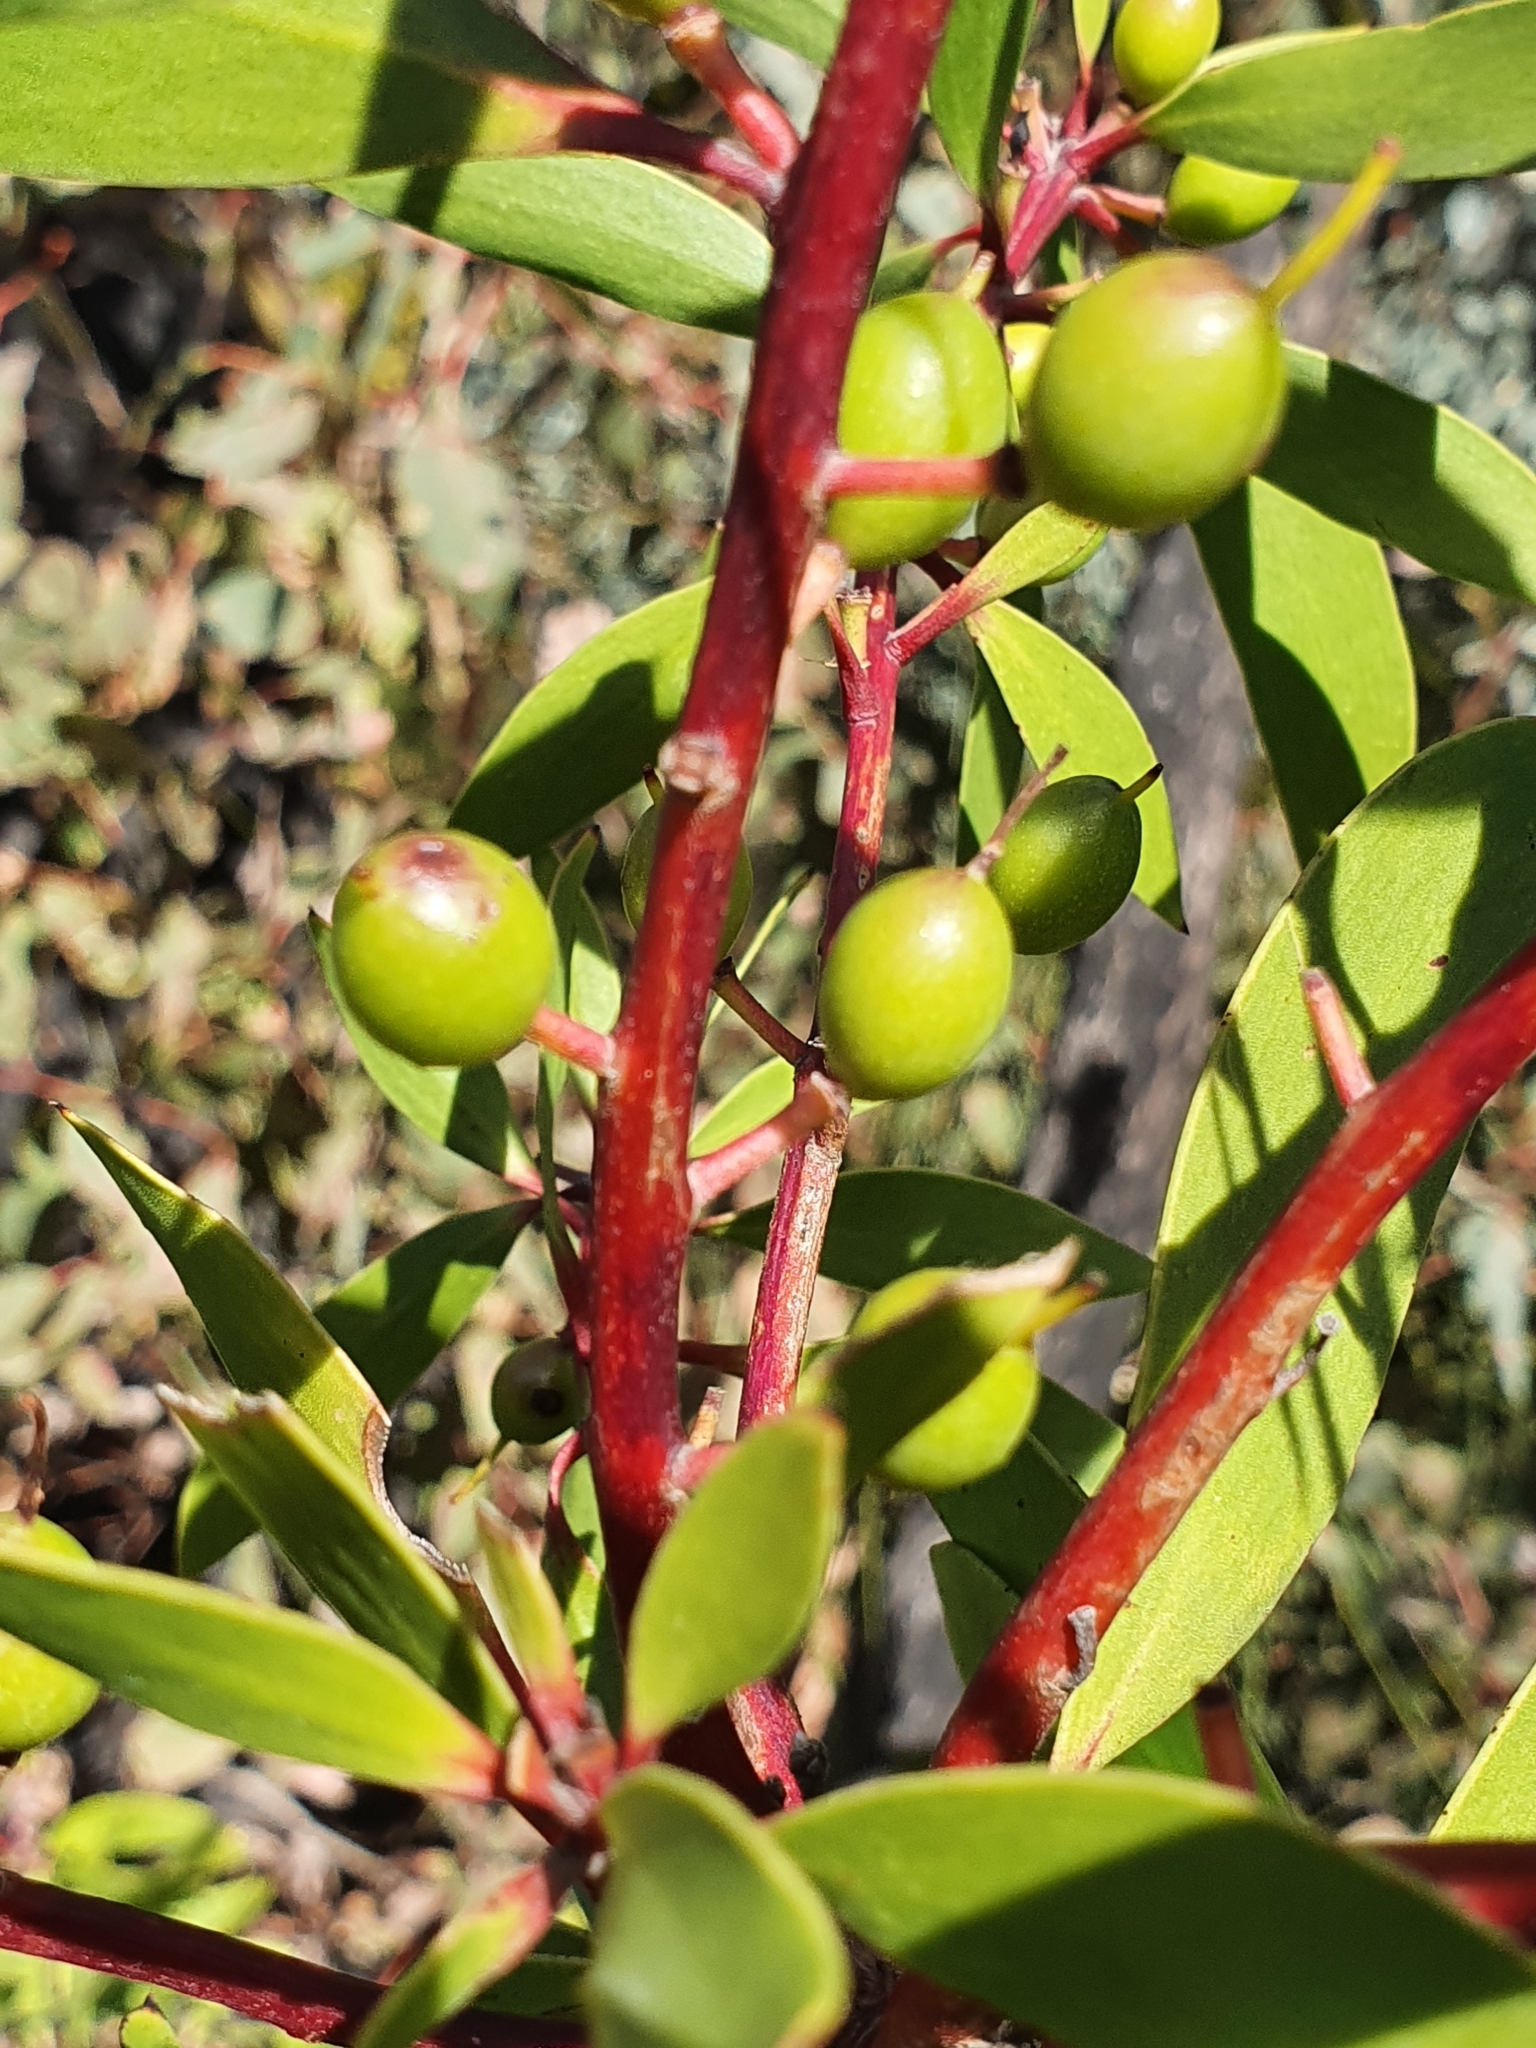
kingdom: Plantae
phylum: Tracheophyta
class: Magnoliopsida
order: Proteales
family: Proteaceae
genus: Persoonia
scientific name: Persoonia levis
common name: Smooth geebung
